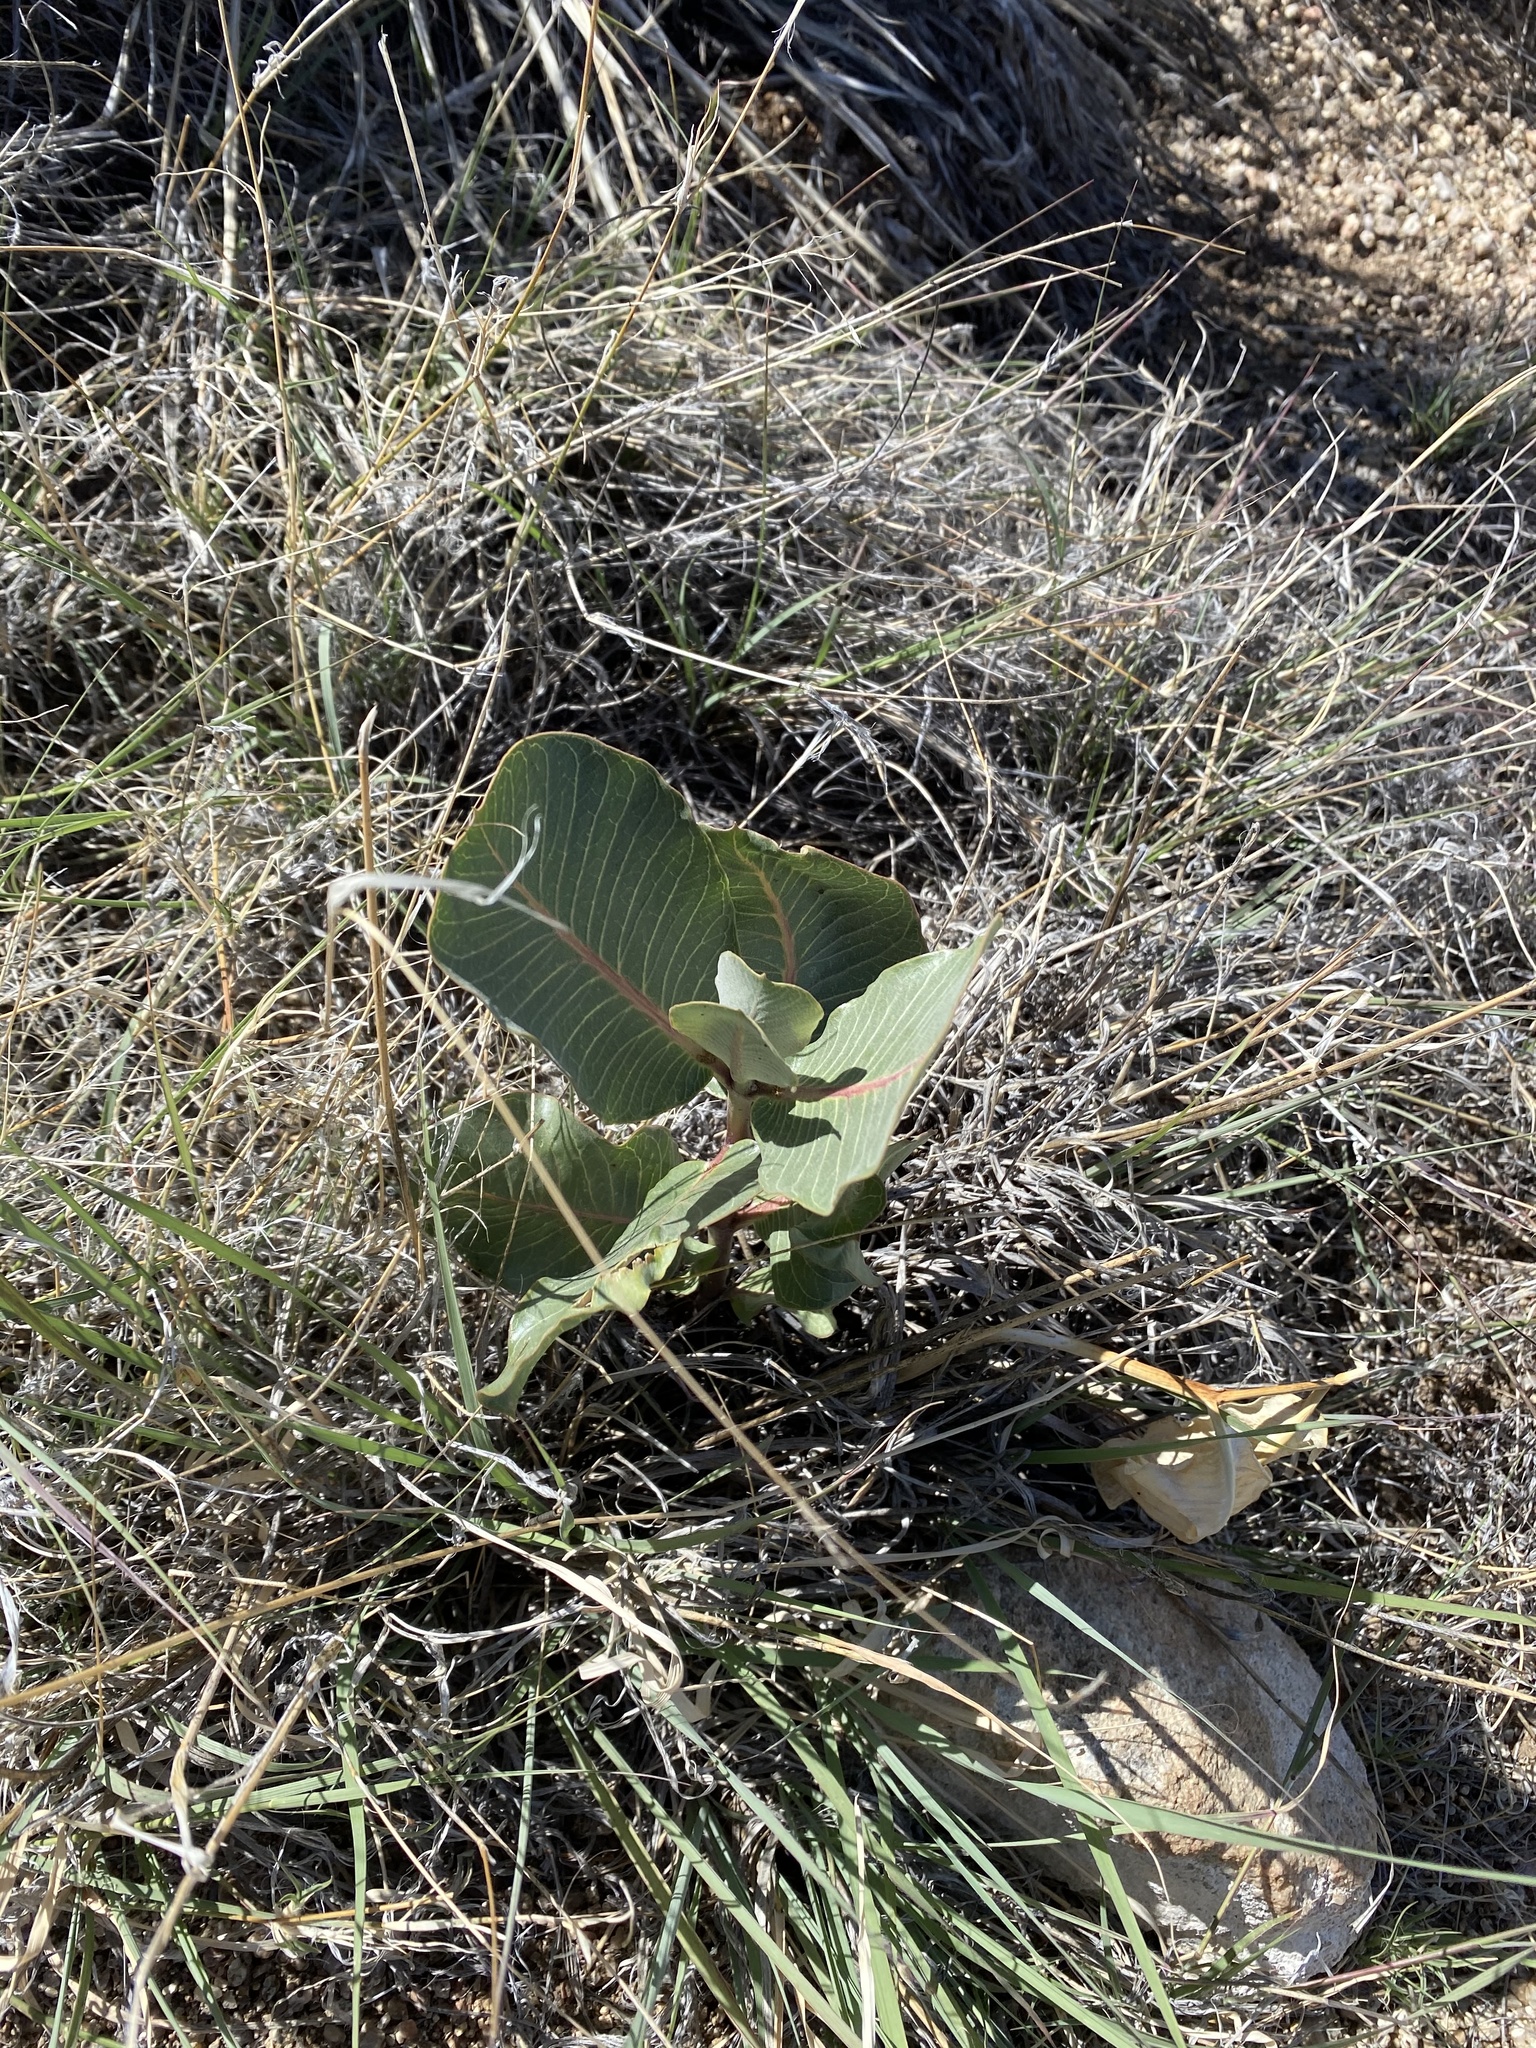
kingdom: Plantae
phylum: Tracheophyta
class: Magnoliopsida
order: Gentianales
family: Apocynaceae
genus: Asclepias
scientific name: Asclepias latifolia
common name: Broadleaf milkweed
